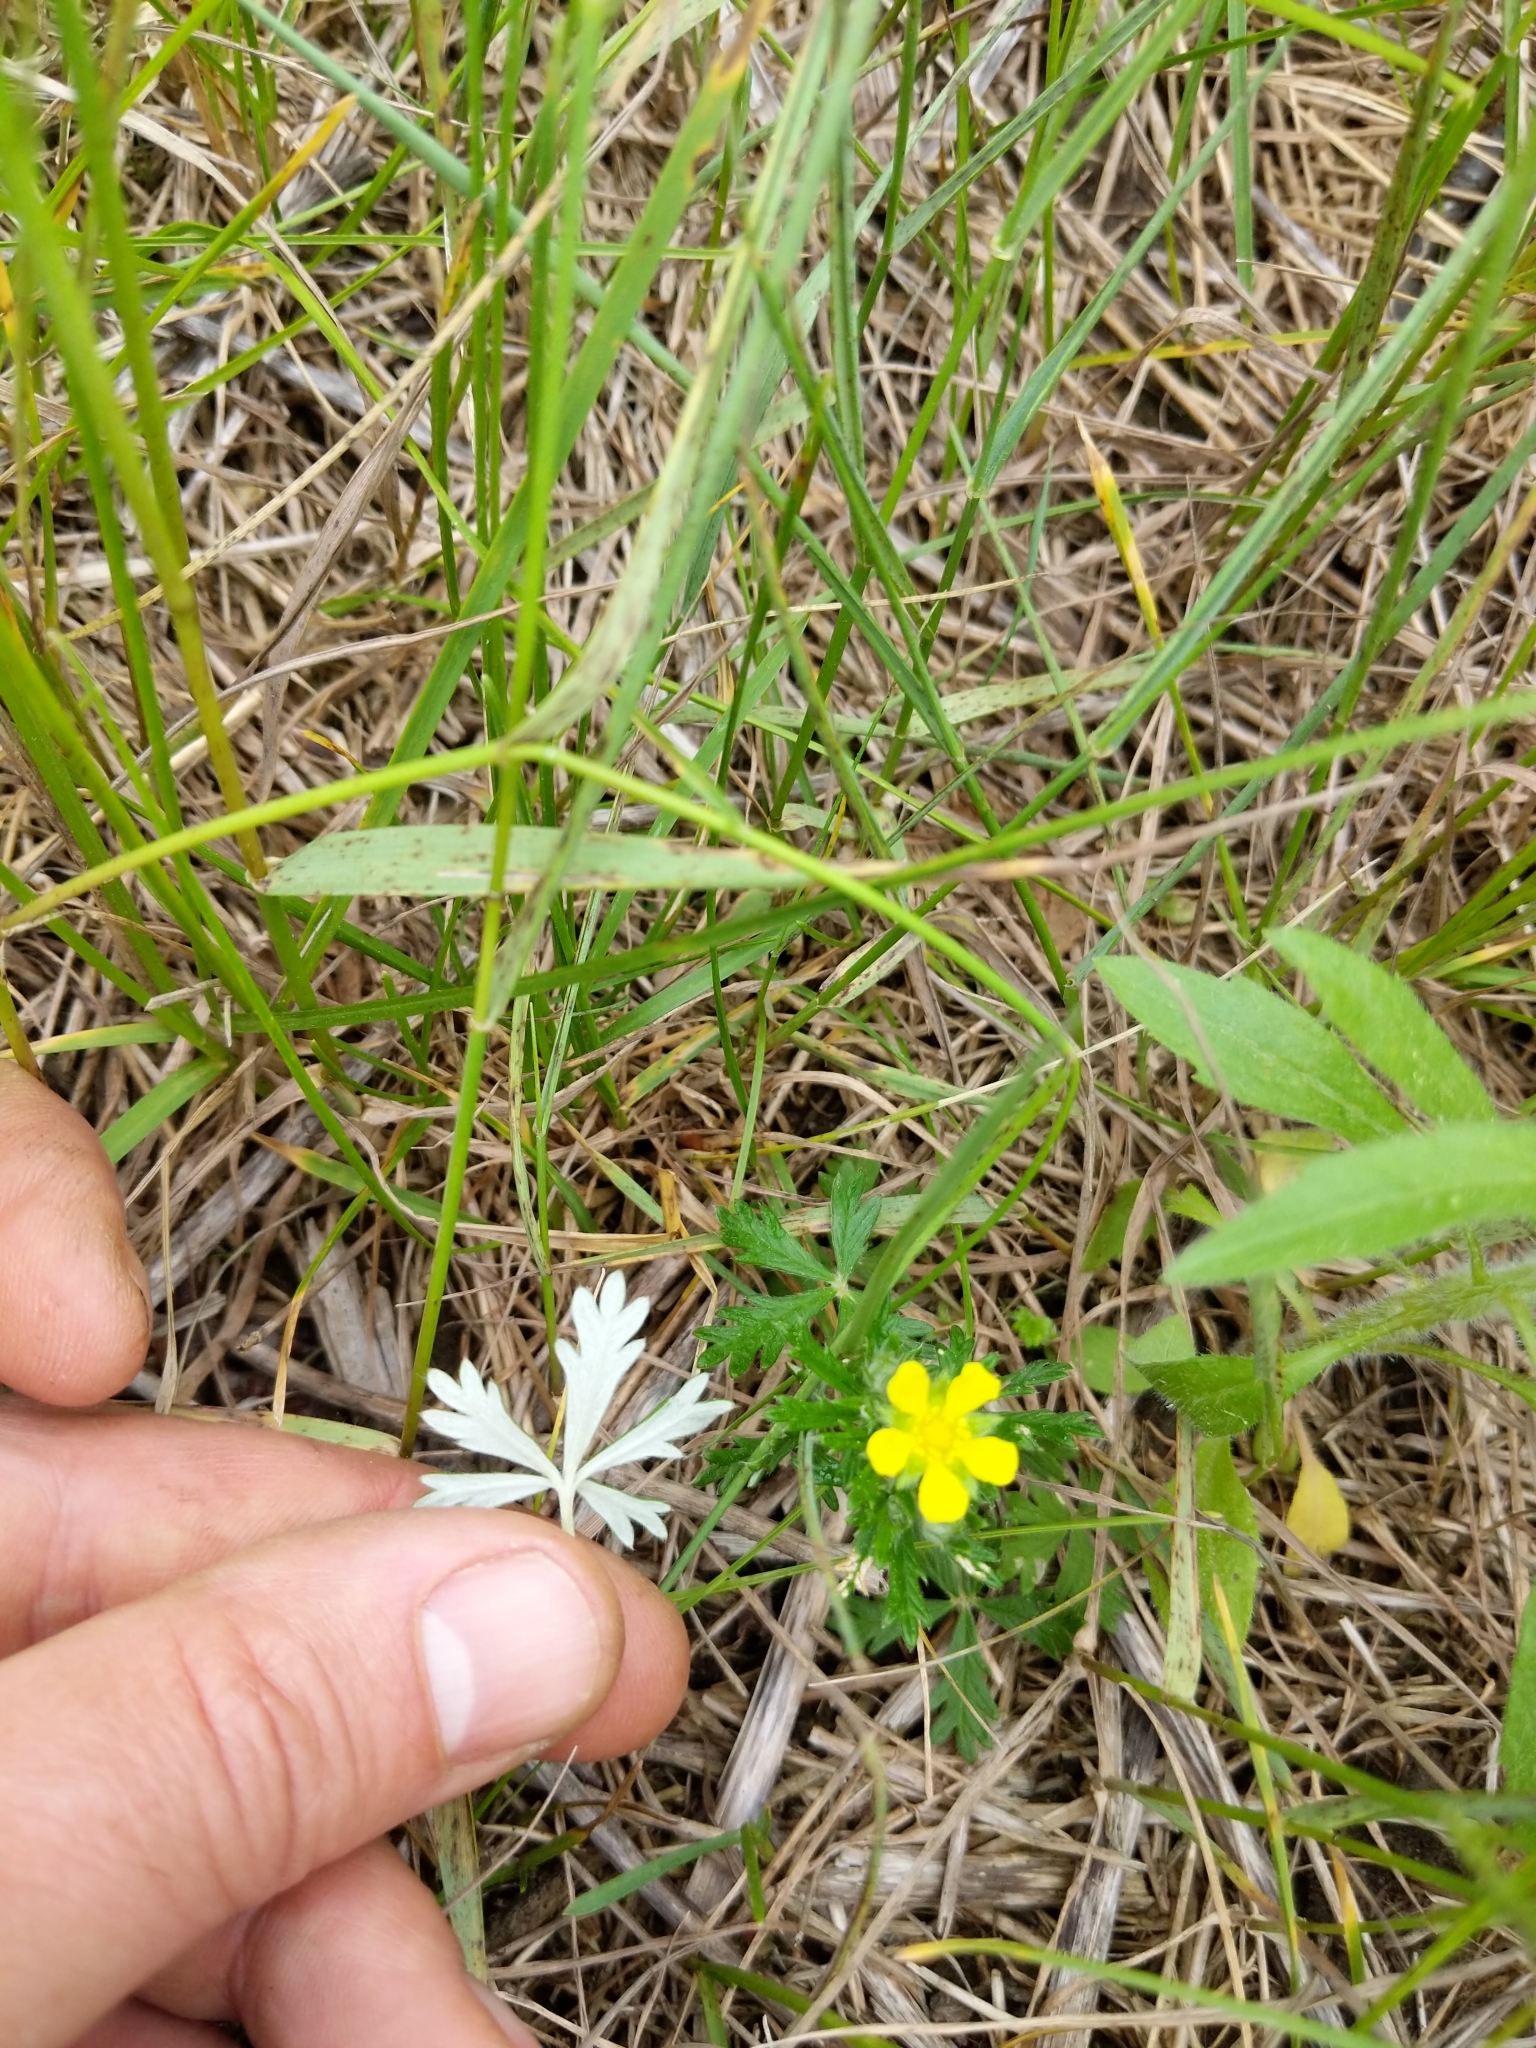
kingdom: Plantae
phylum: Tracheophyta
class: Magnoliopsida
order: Rosales
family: Rosaceae
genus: Potentilla
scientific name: Potentilla argentea
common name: Hoary cinquefoil
